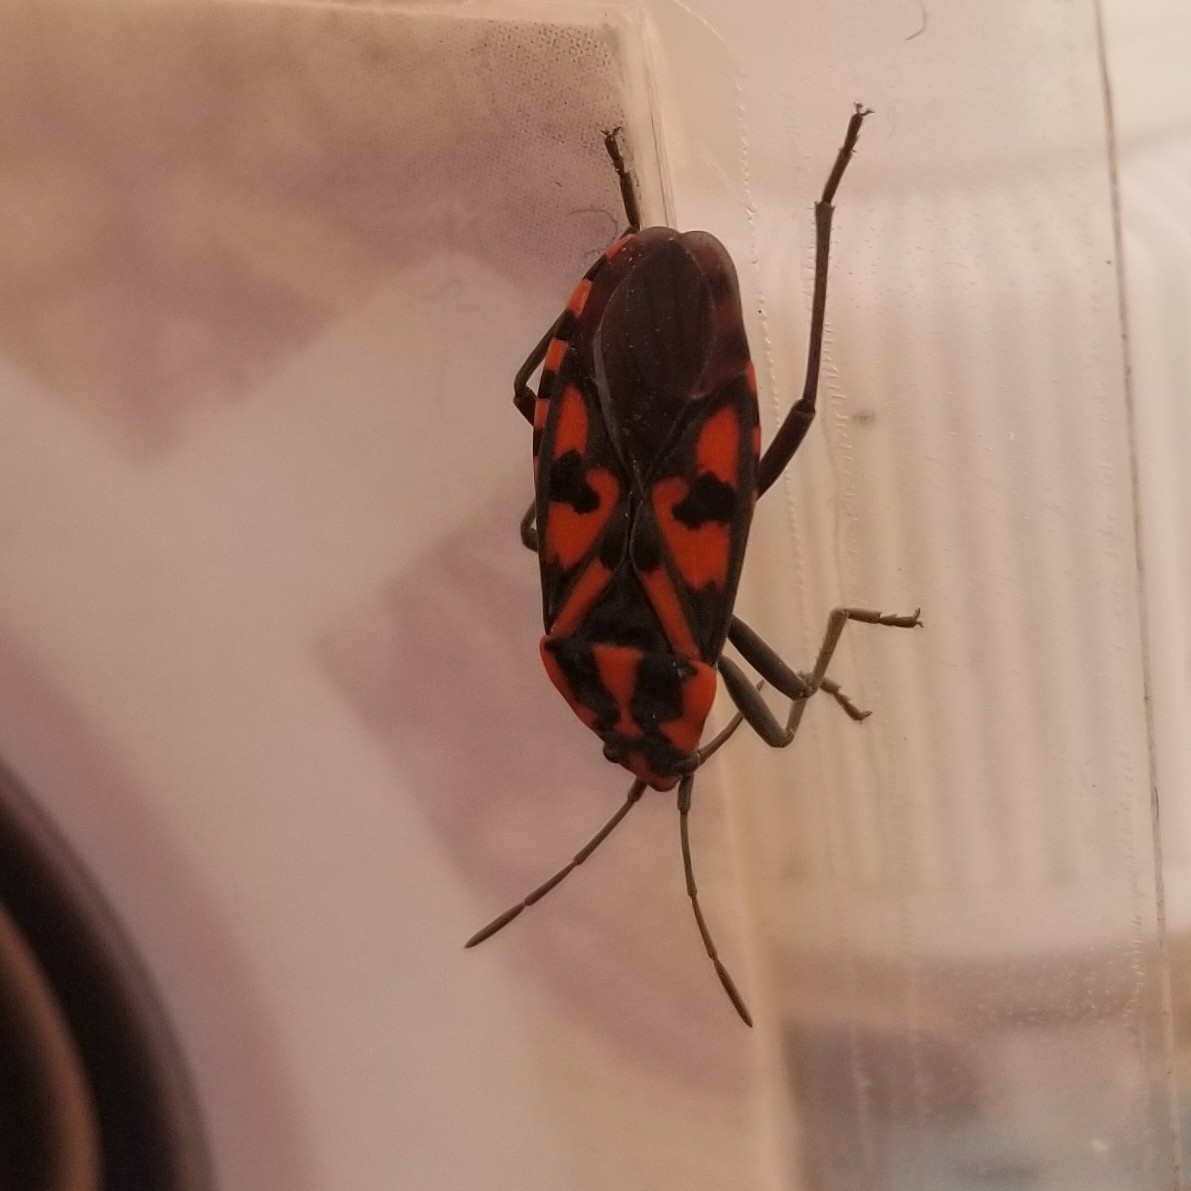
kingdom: Animalia
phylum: Arthropoda
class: Insecta
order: Hemiptera
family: Lygaeidae
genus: Spilostethus
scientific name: Spilostethus saxatilis
